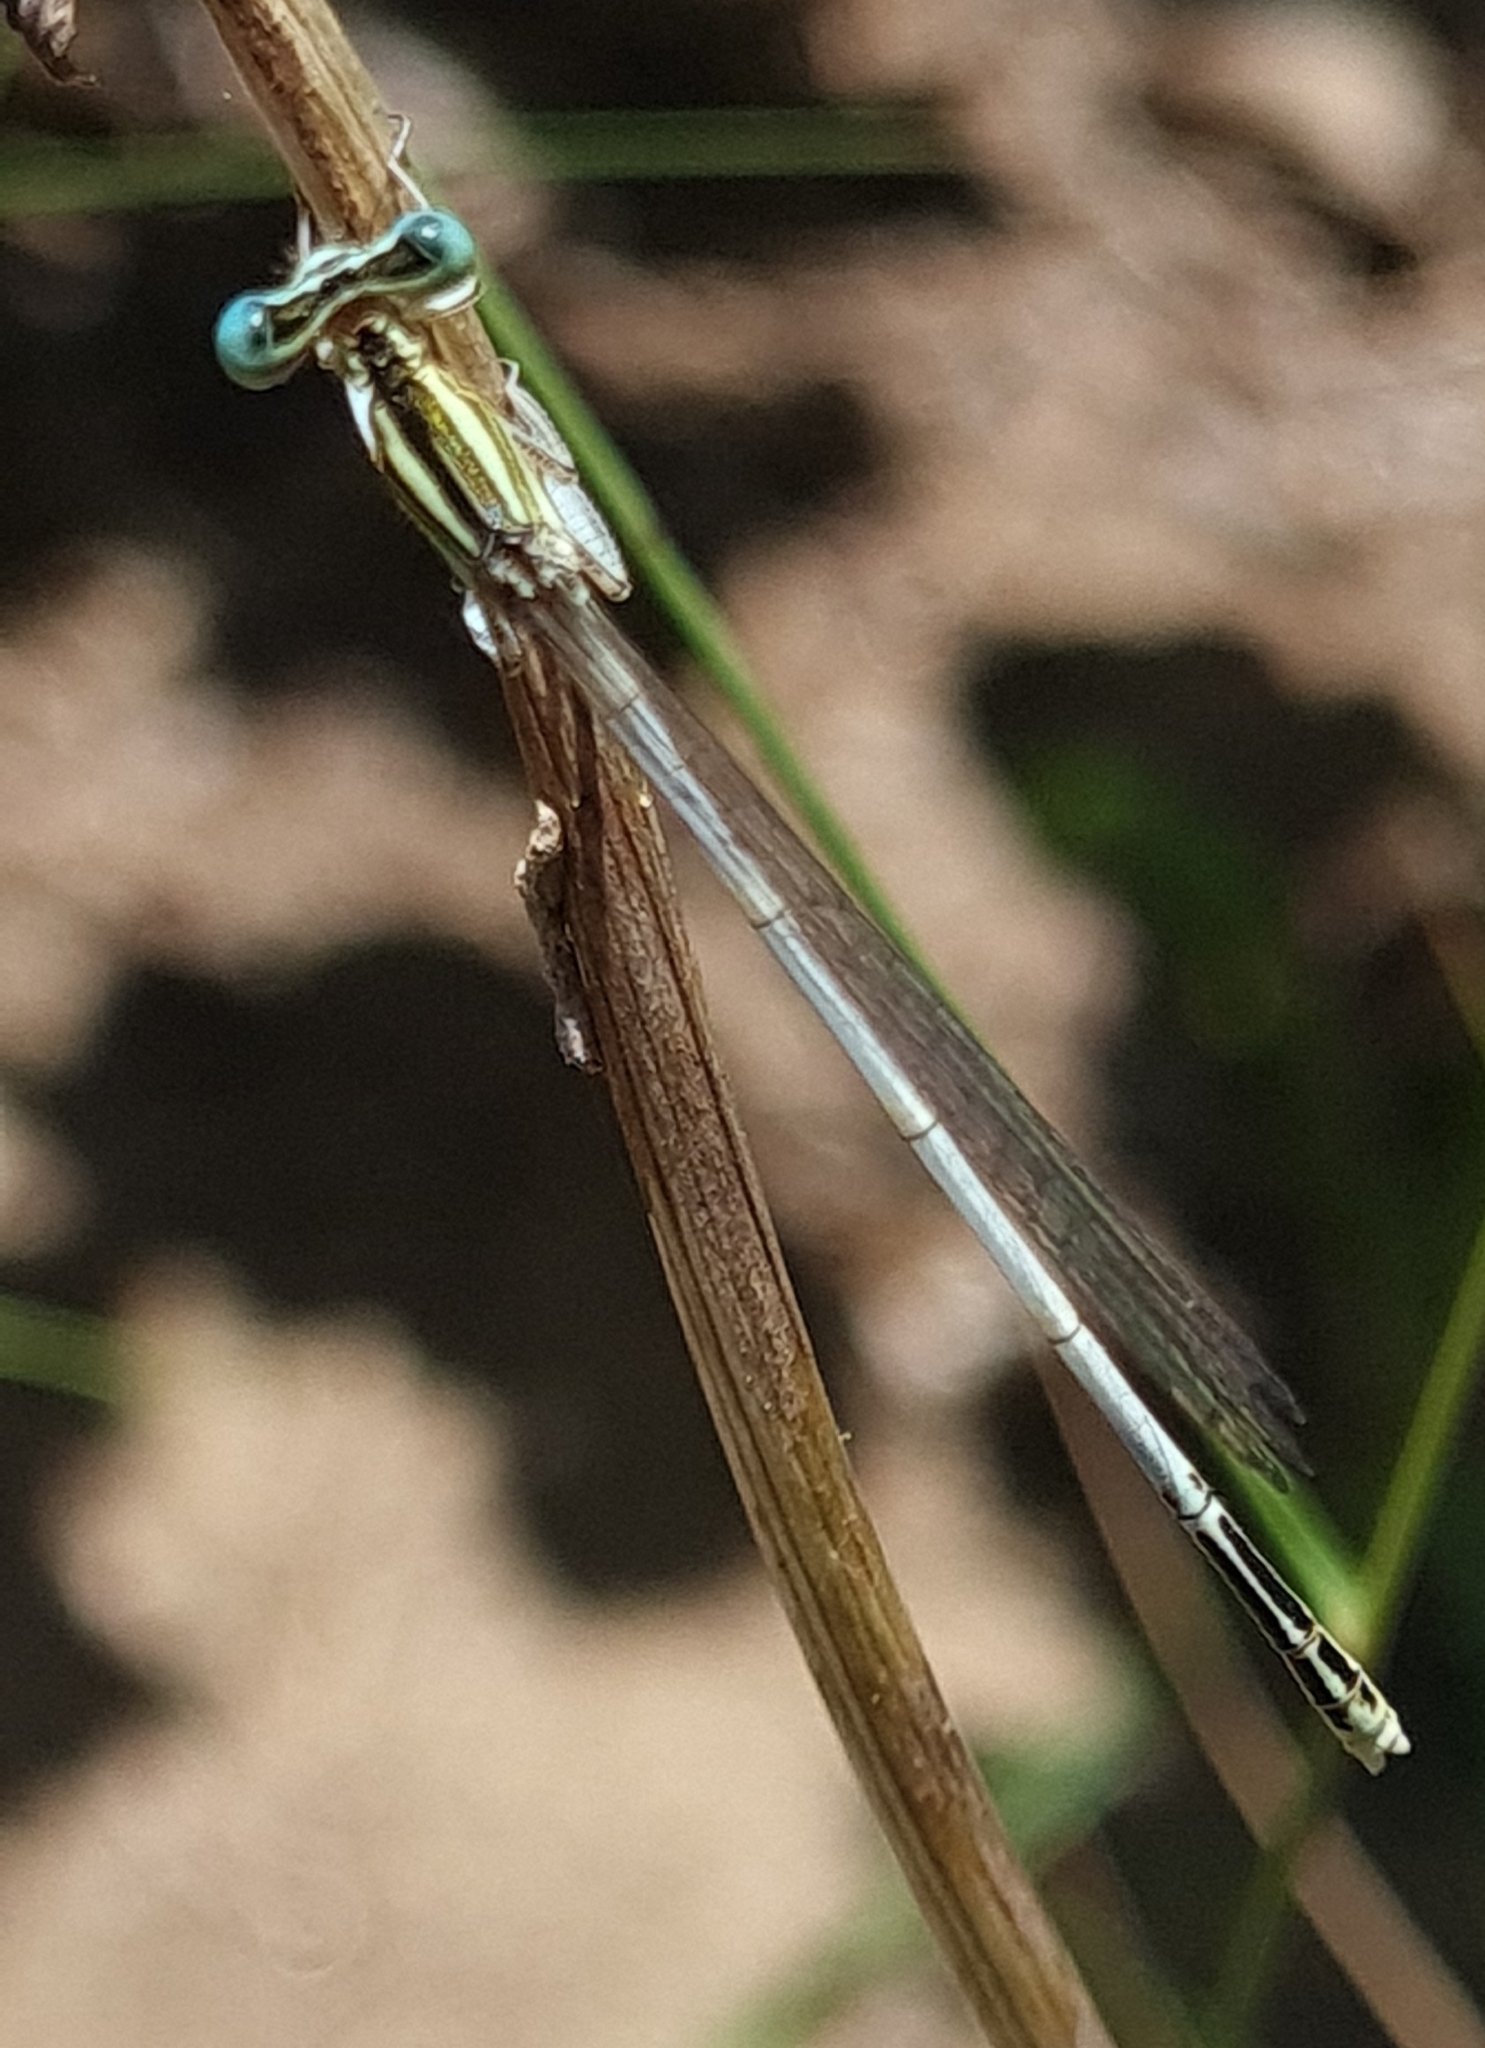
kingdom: Animalia
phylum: Arthropoda
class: Insecta
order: Odonata
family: Platycnemididae
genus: Platycnemis
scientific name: Platycnemis latipes
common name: White featherleg
